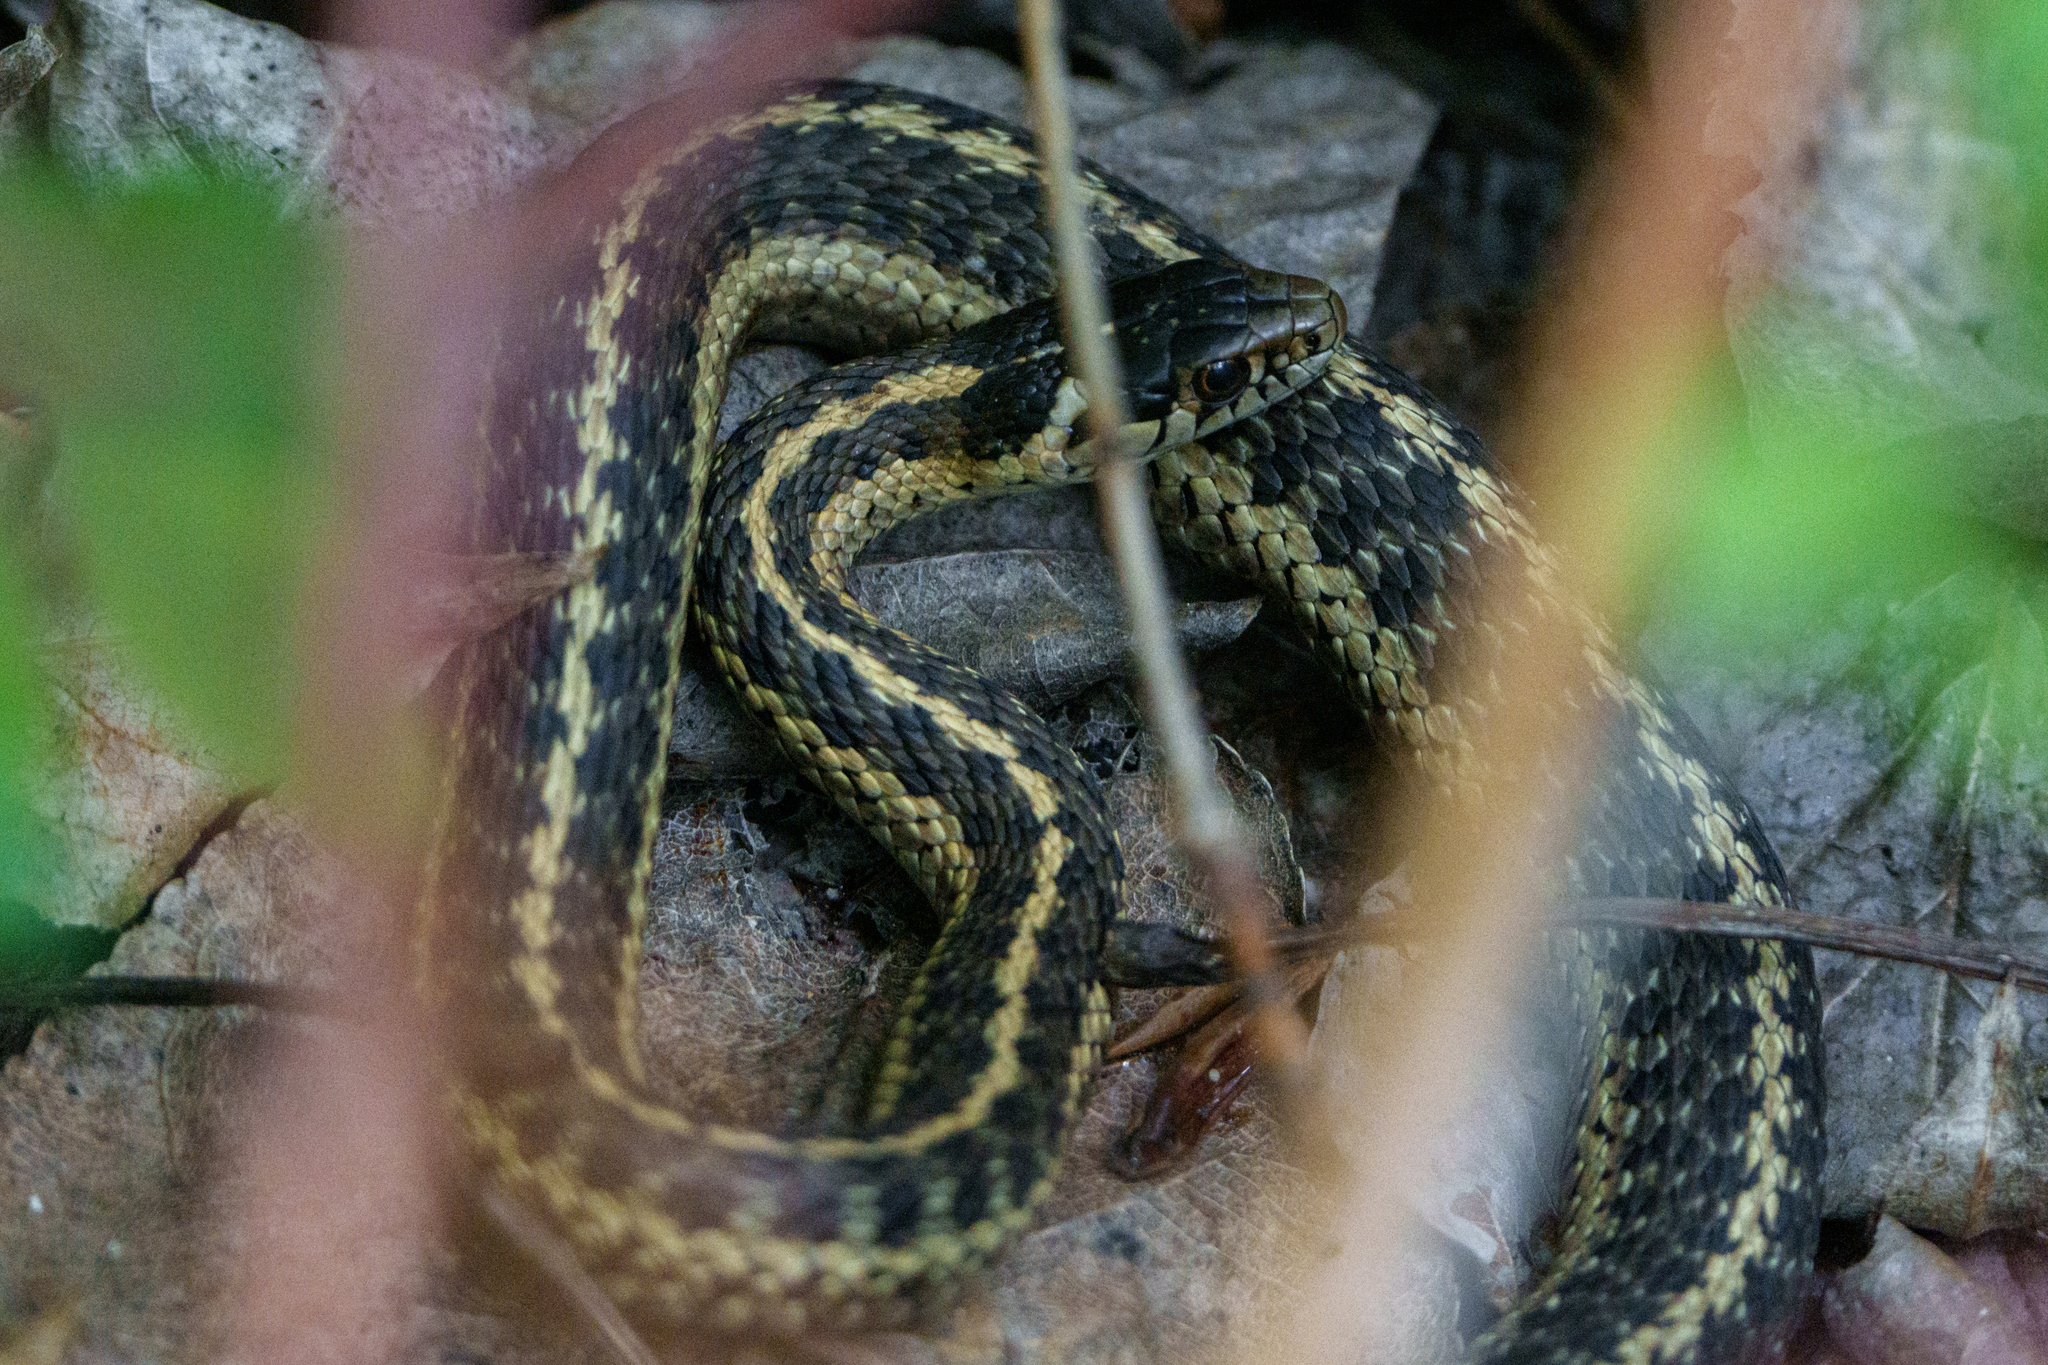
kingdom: Animalia
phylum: Chordata
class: Squamata
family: Colubridae
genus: Thamnophis
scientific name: Thamnophis elegans
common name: Western terrestrial garter snake
